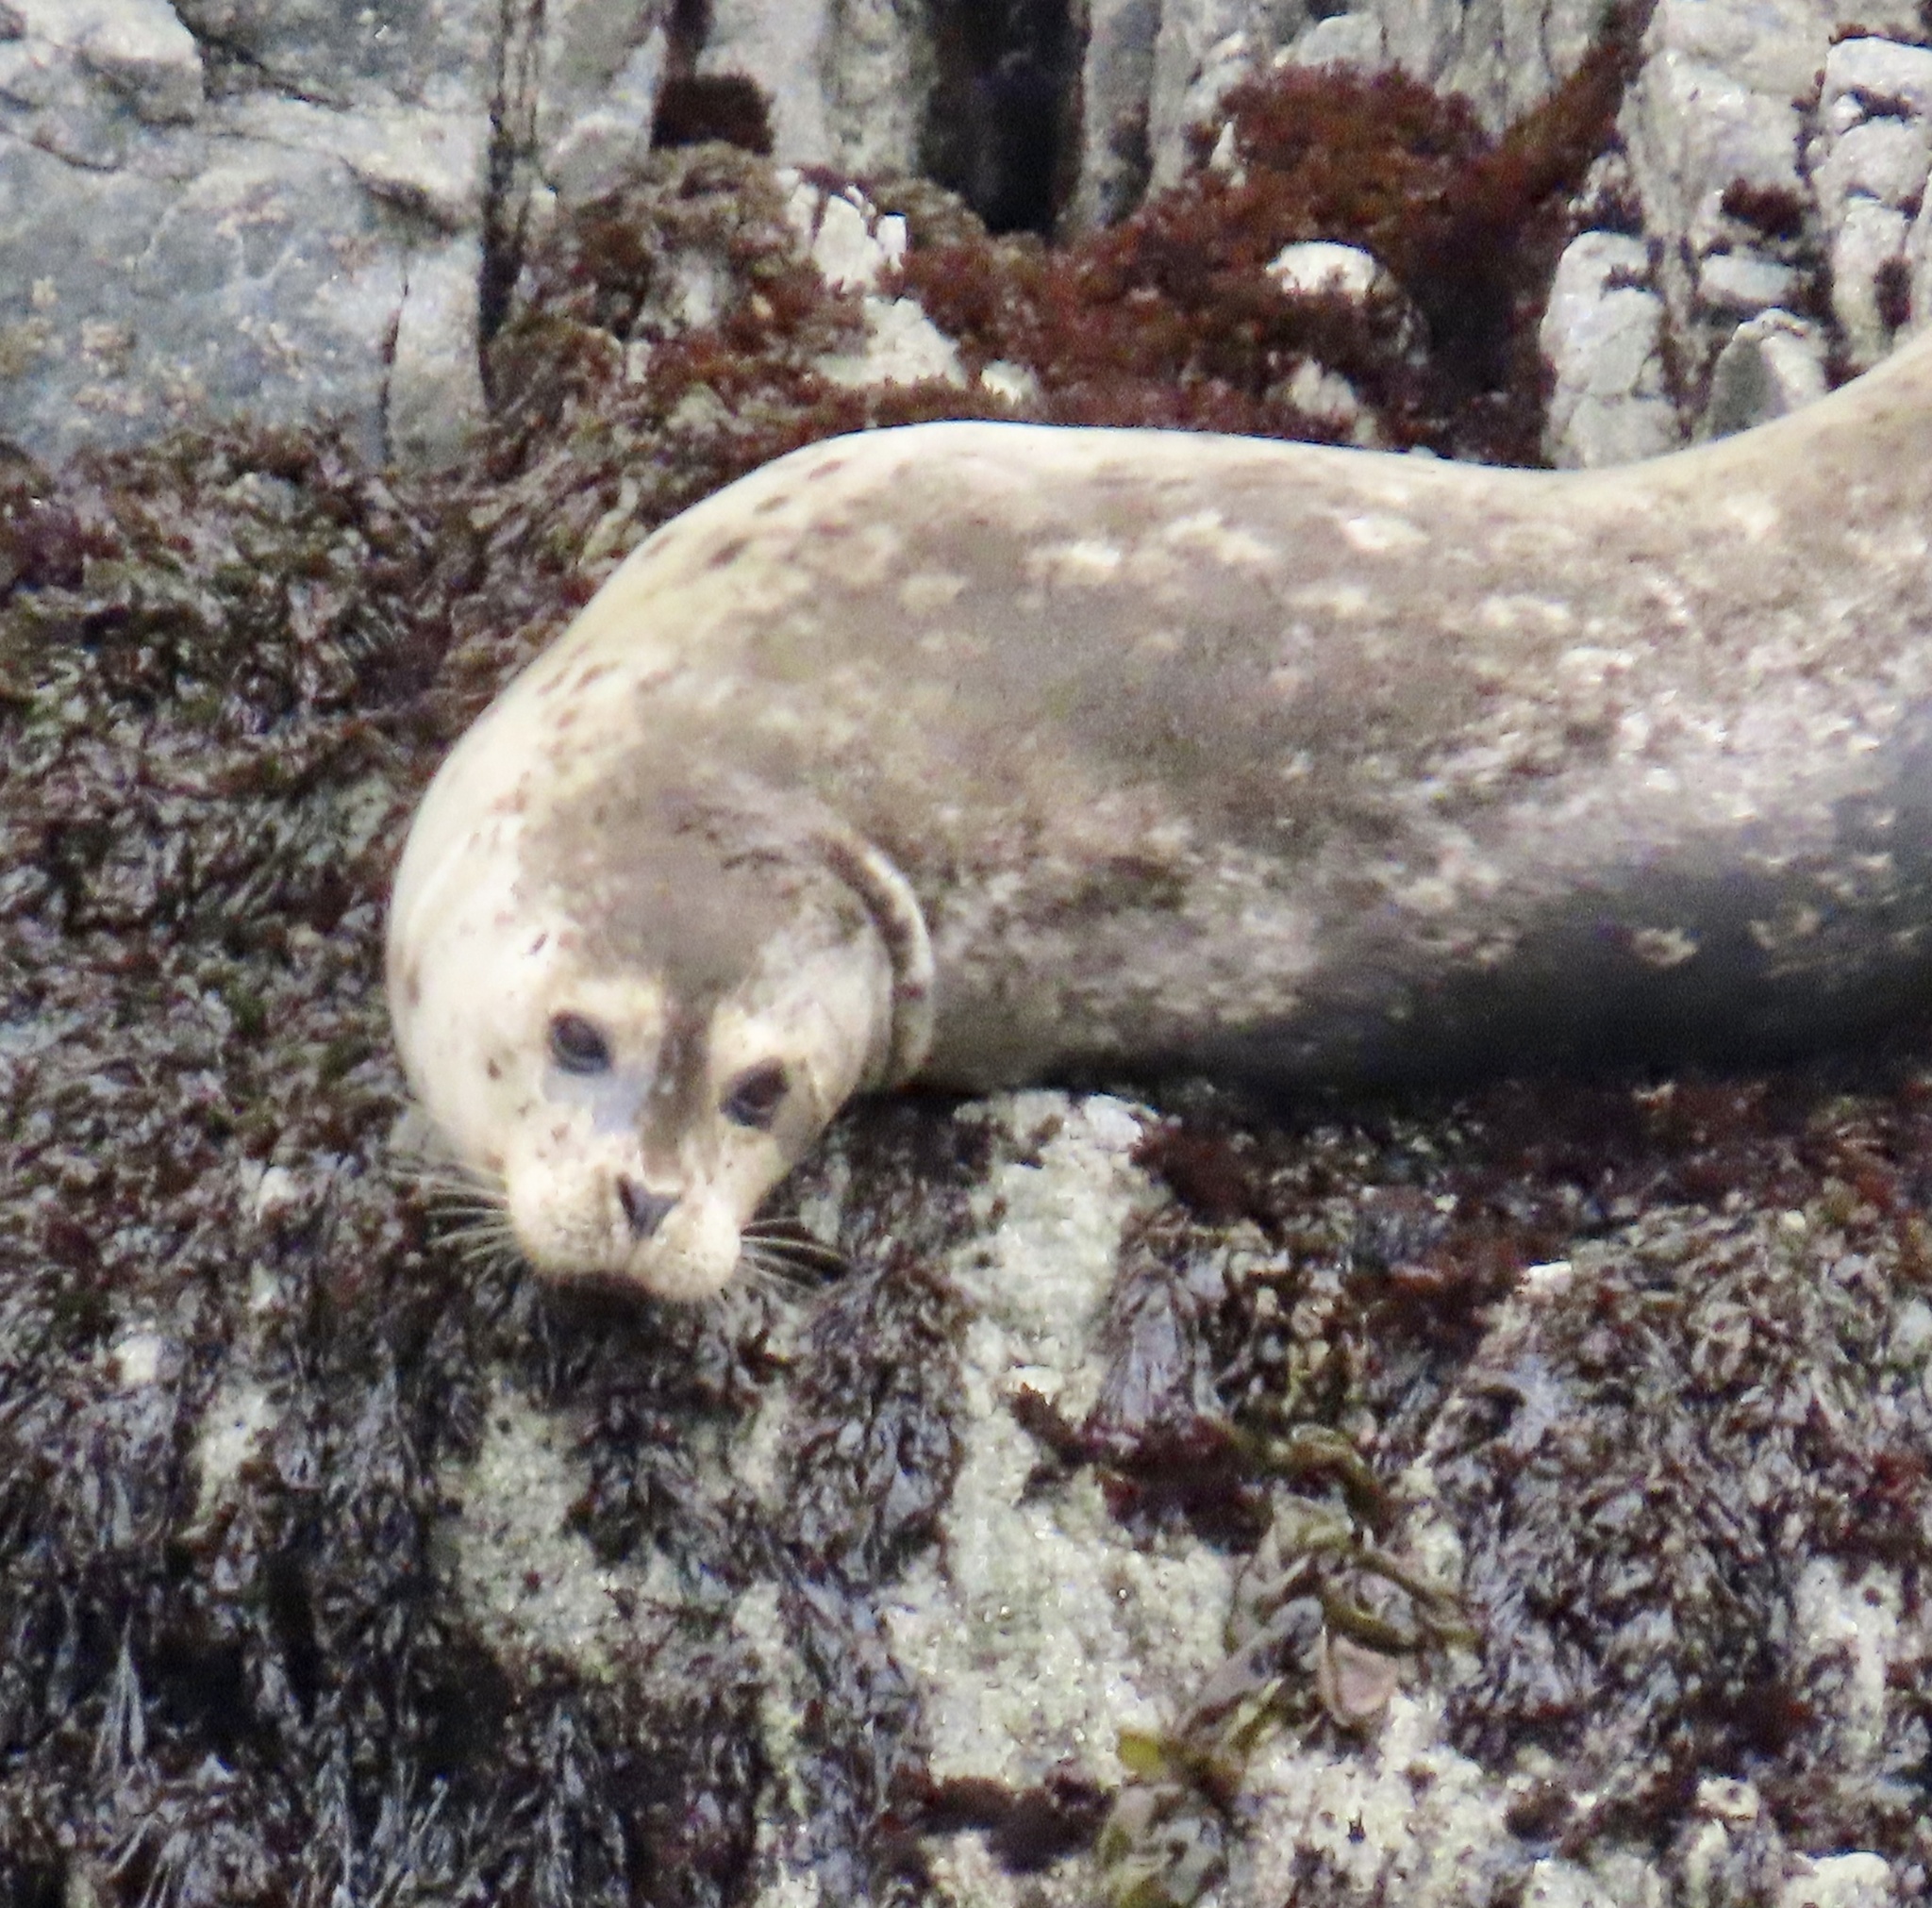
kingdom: Animalia
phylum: Chordata
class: Mammalia
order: Carnivora
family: Phocidae
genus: Phoca
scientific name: Phoca vitulina
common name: Harbor seal
